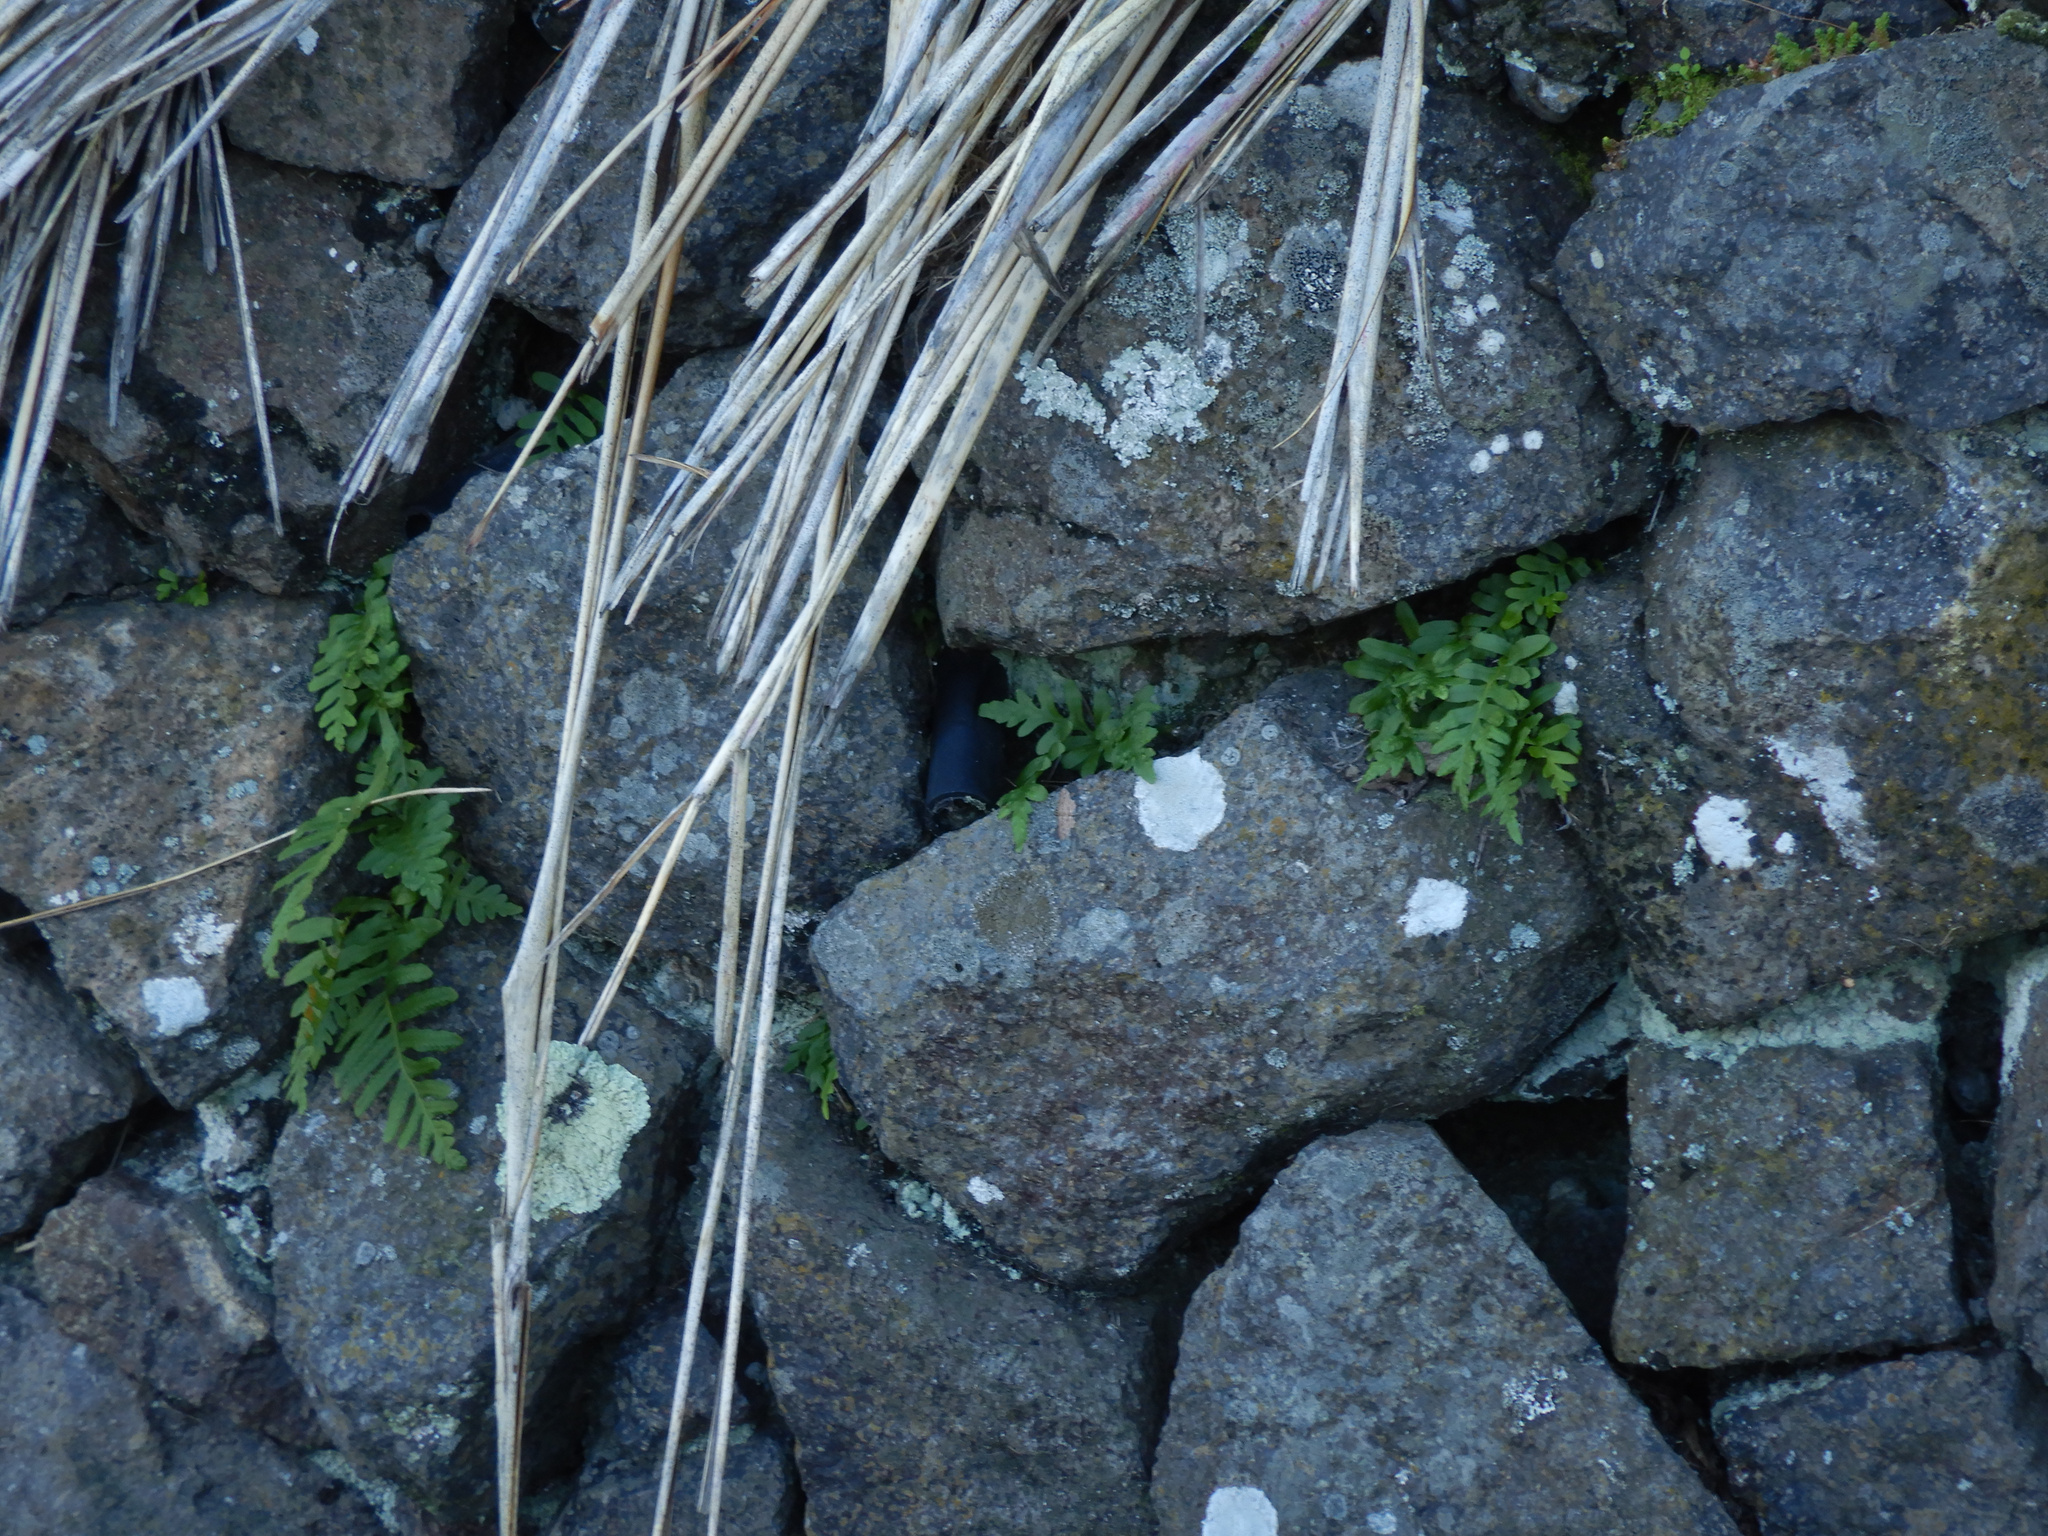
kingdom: Plantae
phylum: Tracheophyta
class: Polypodiopsida
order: Polypodiales
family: Polypodiaceae
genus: Polypodium
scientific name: Polypodium vulgare
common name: Common polypody
